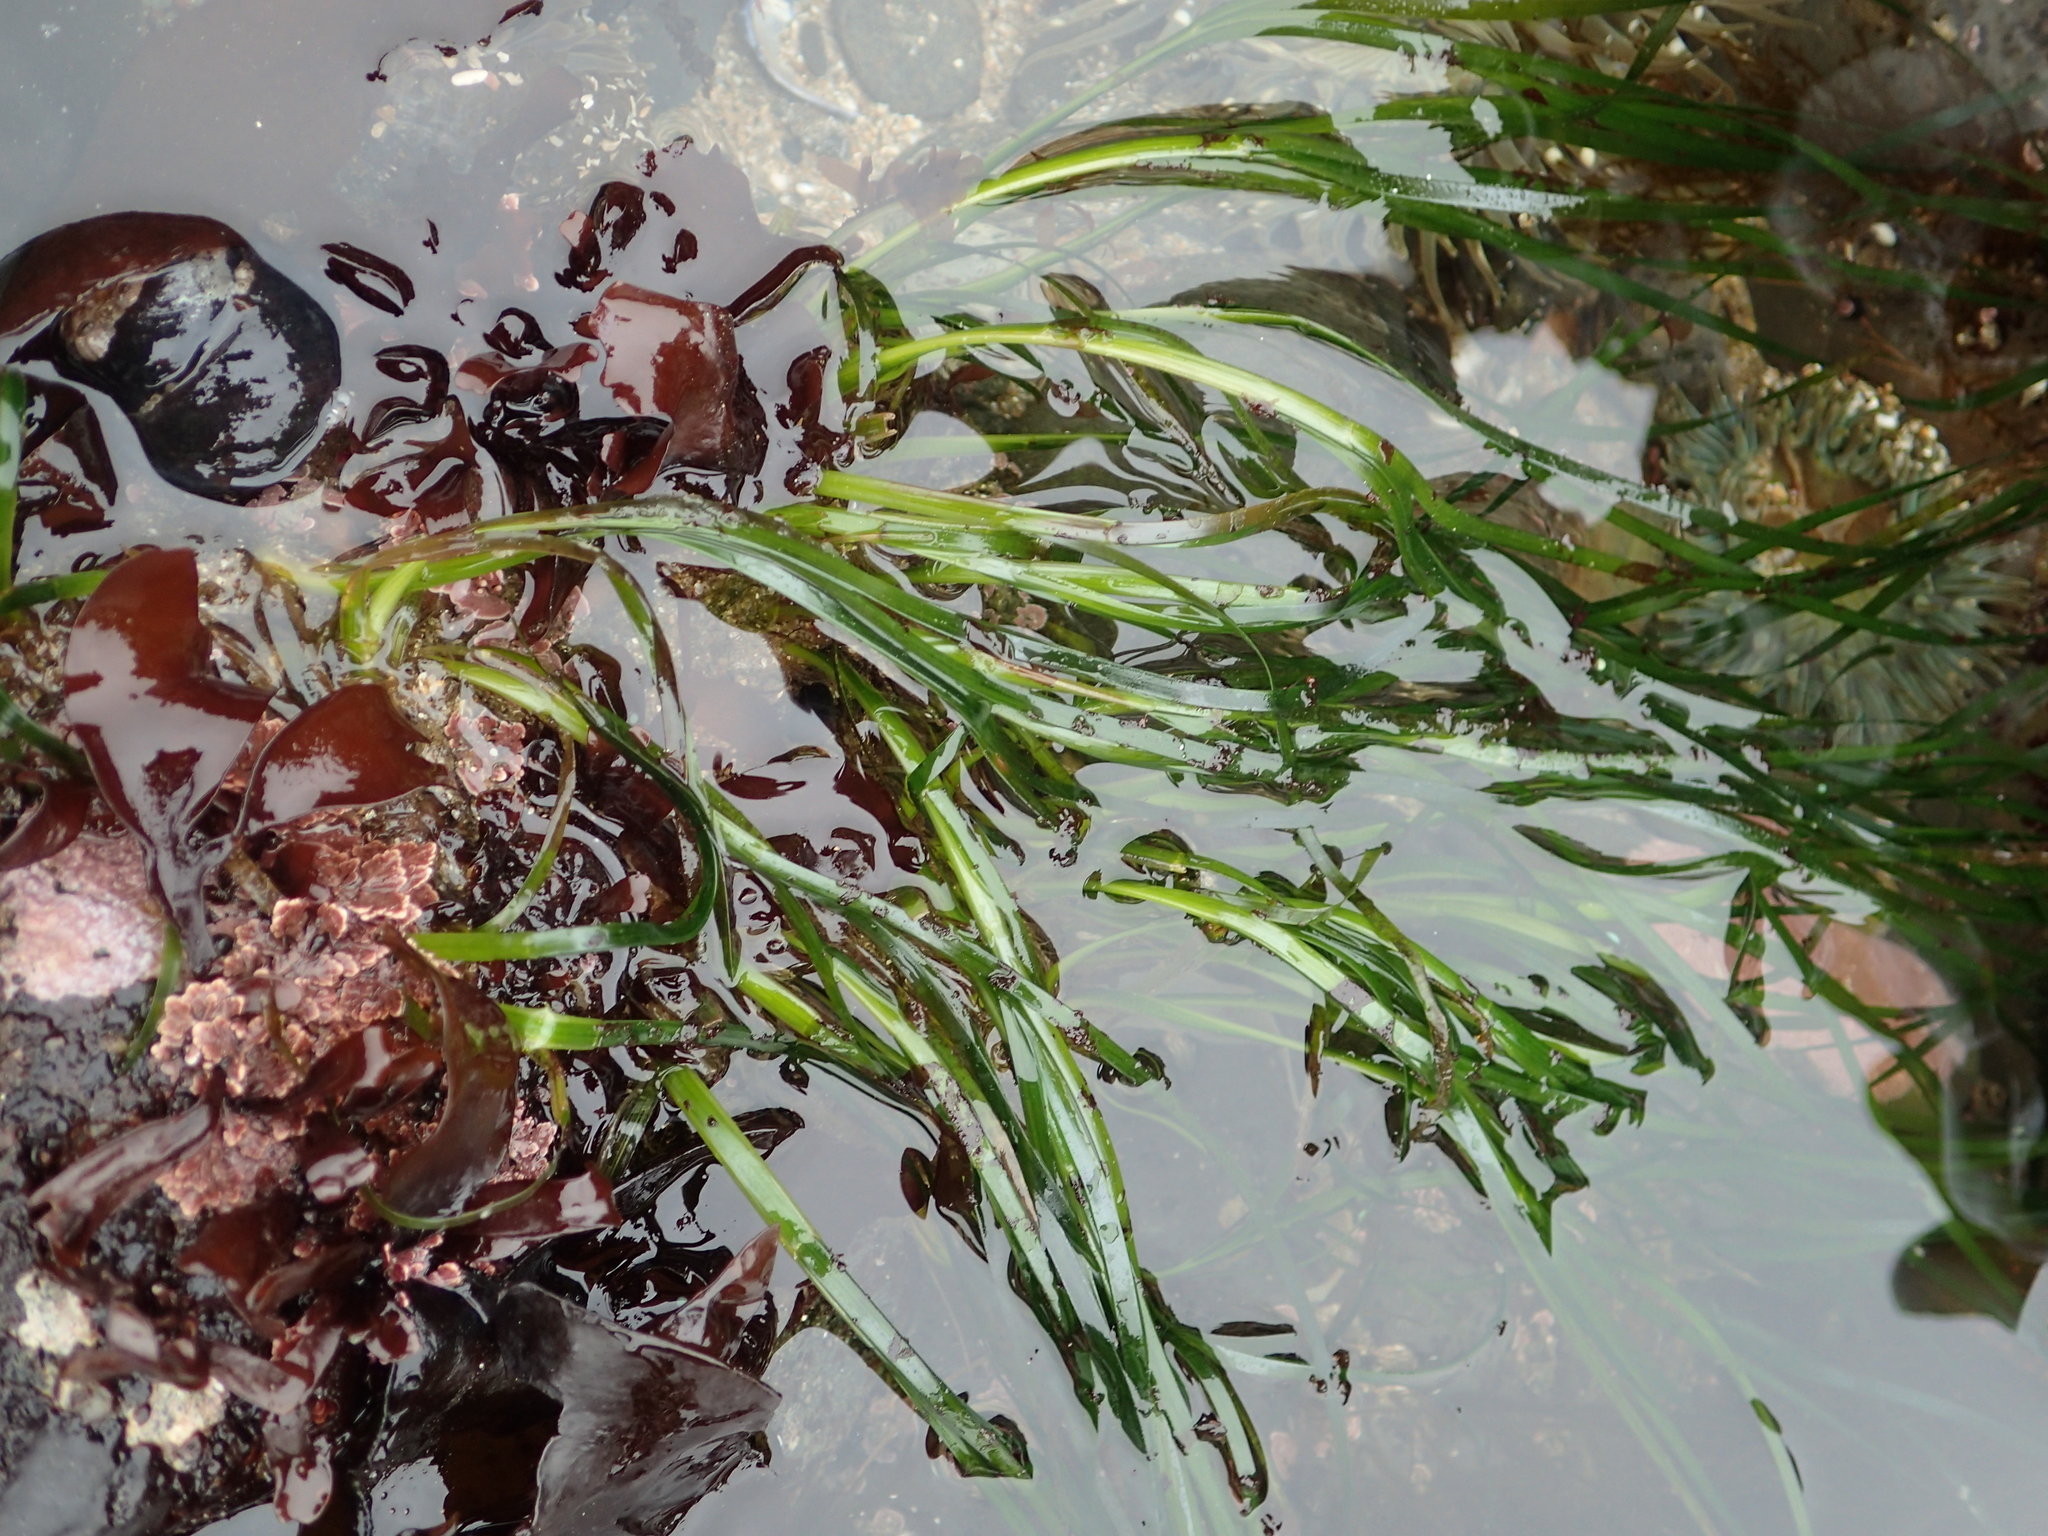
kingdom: Plantae
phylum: Tracheophyta
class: Liliopsida
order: Alismatales
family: Zosteraceae
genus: Phyllospadix
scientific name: Phyllospadix scouleri
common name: Species code: ps
